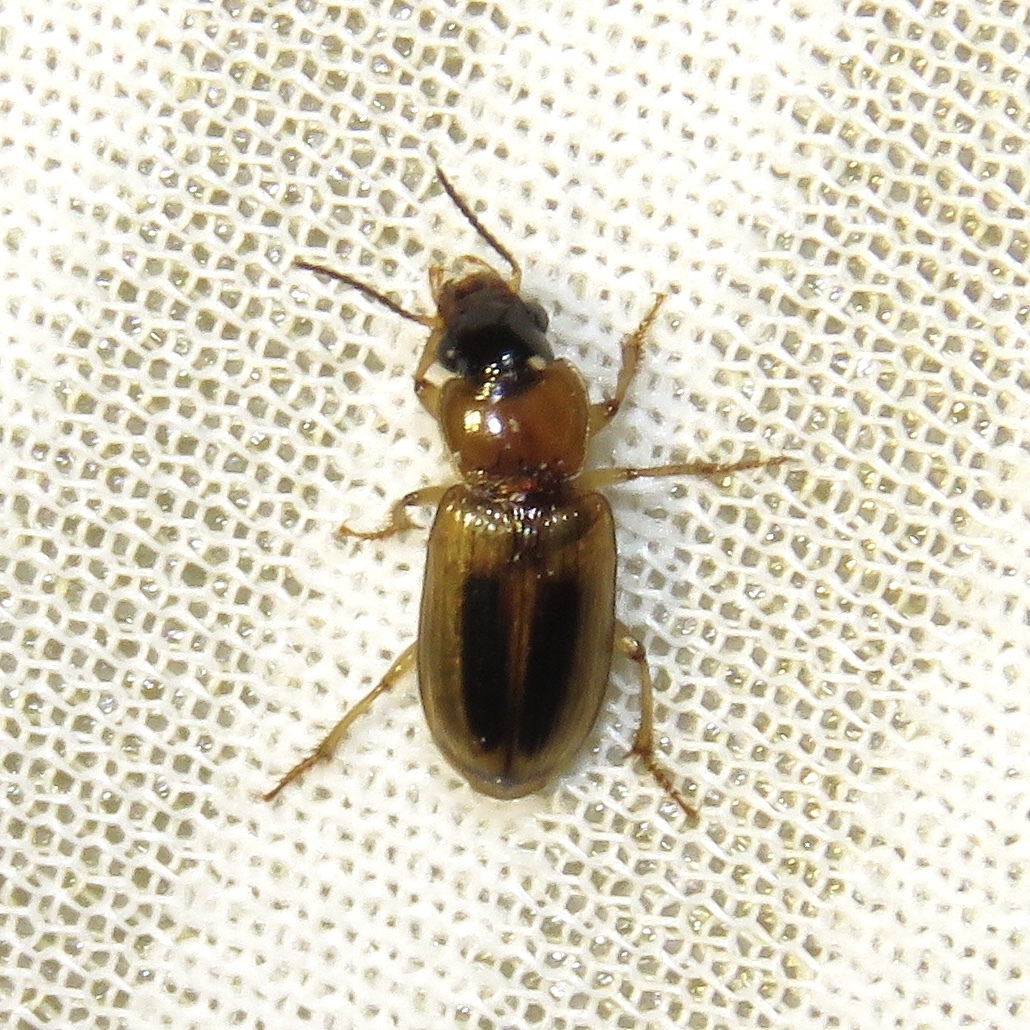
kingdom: Animalia
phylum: Arthropoda
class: Insecta
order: Coleoptera
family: Carabidae
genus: Stenolophus
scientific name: Stenolophus lecontei
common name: Leconte's seedcorn beetle
